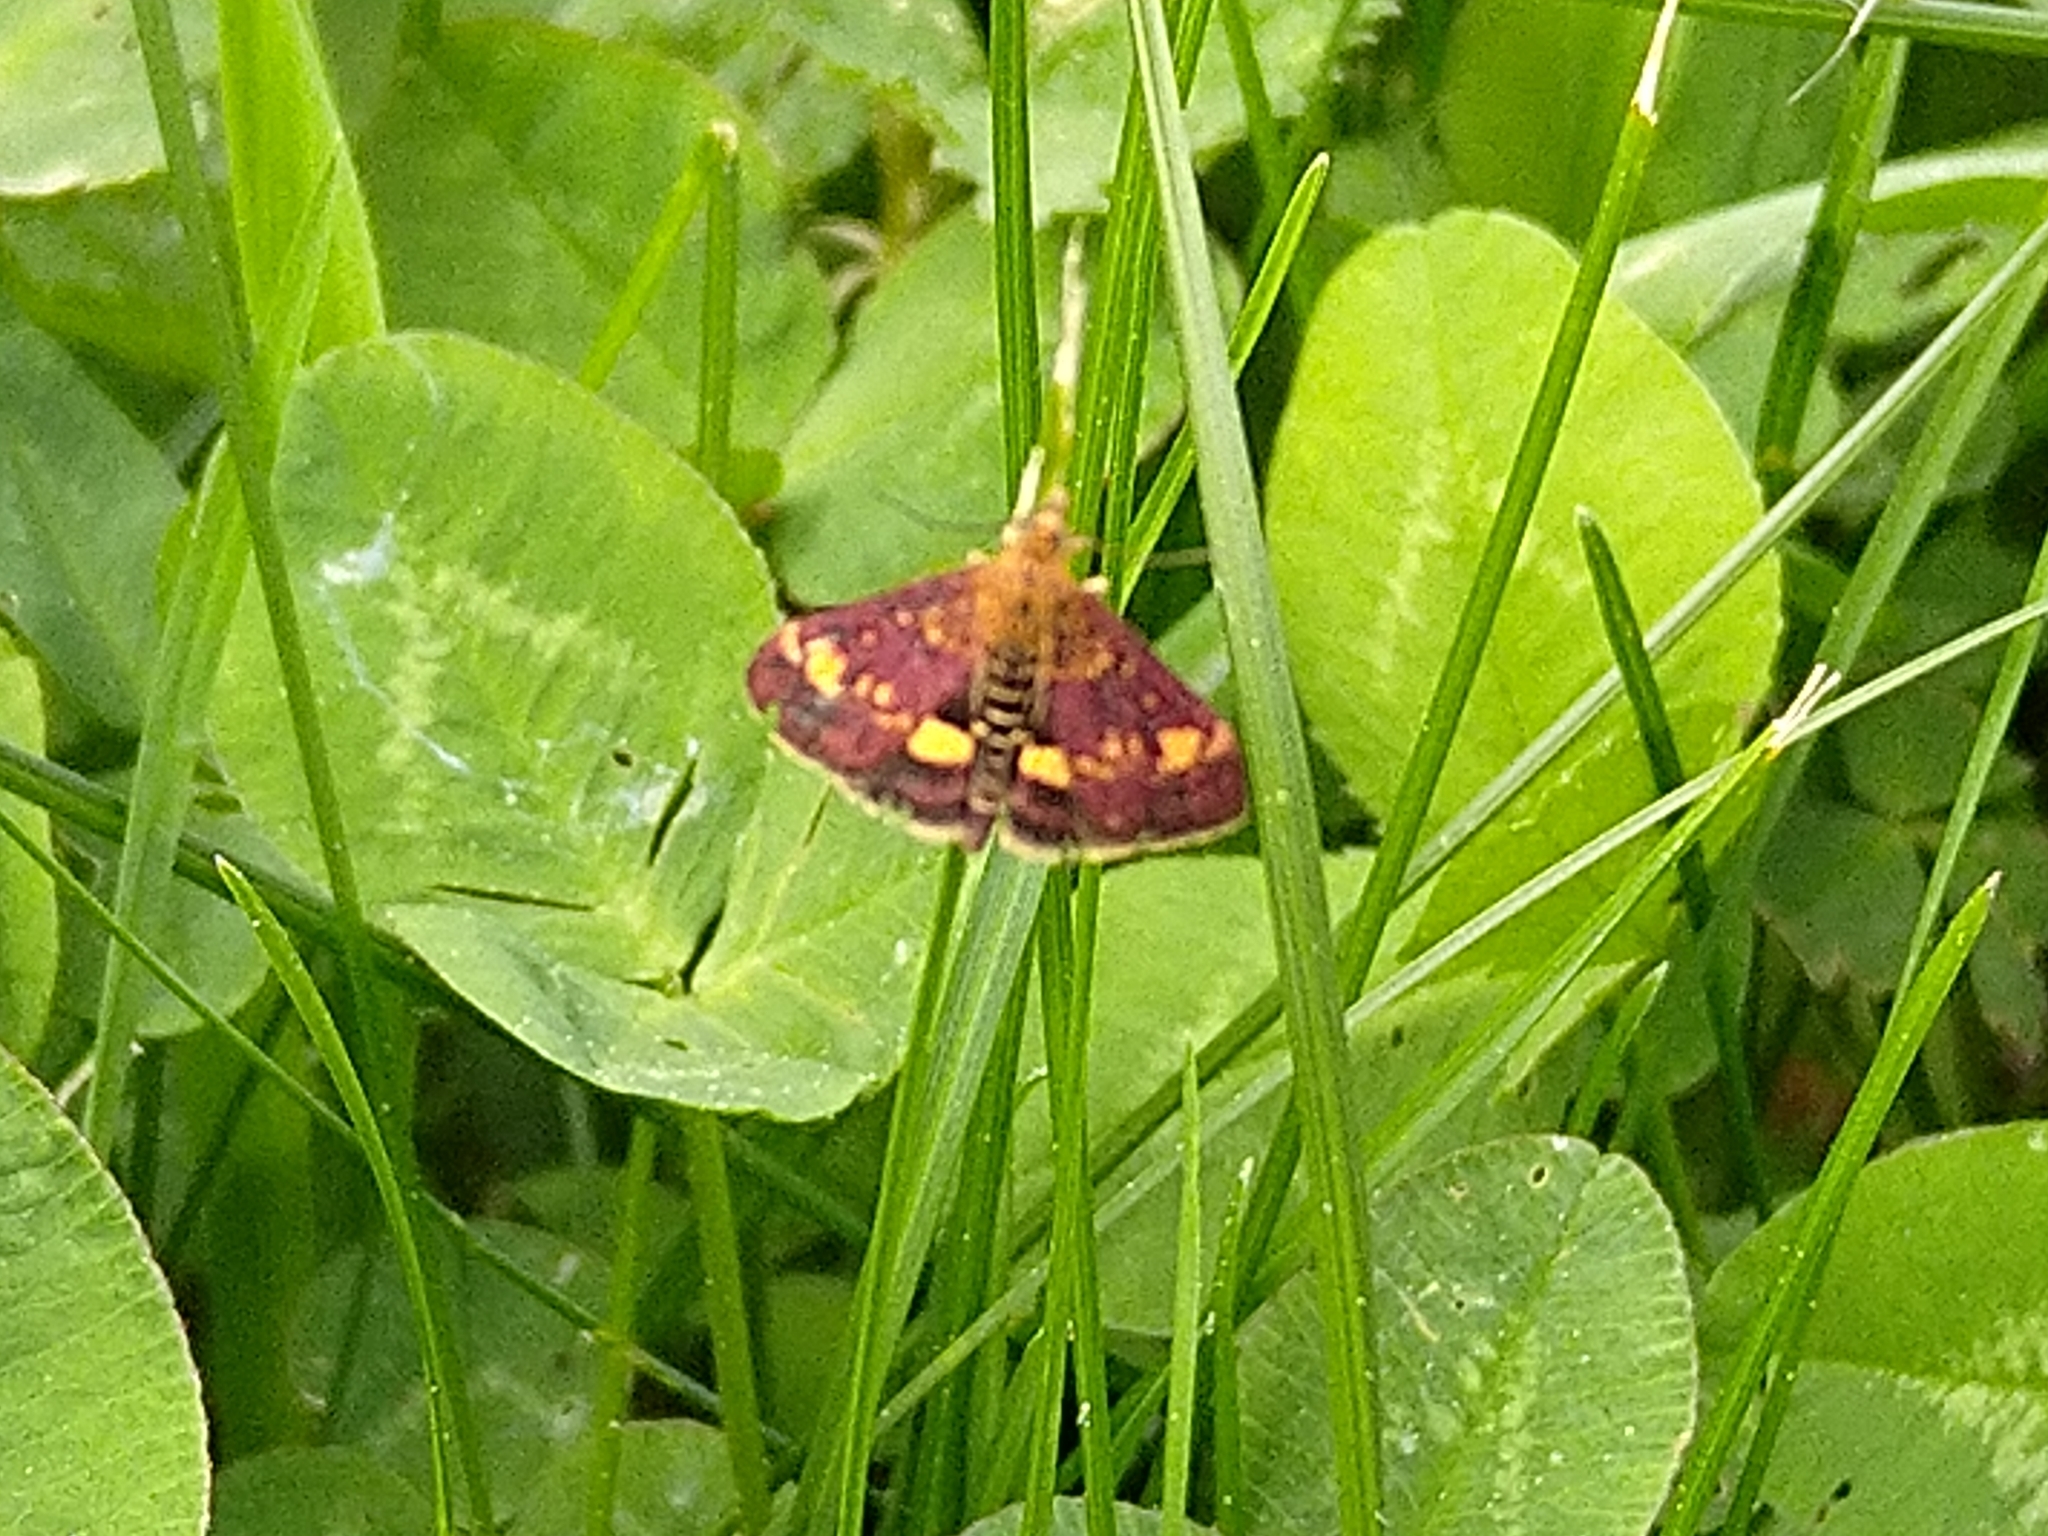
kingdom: Animalia
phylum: Arthropoda
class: Insecta
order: Lepidoptera
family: Crambidae
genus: Pyrausta
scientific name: Pyrausta aurata
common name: Small purple & gold
